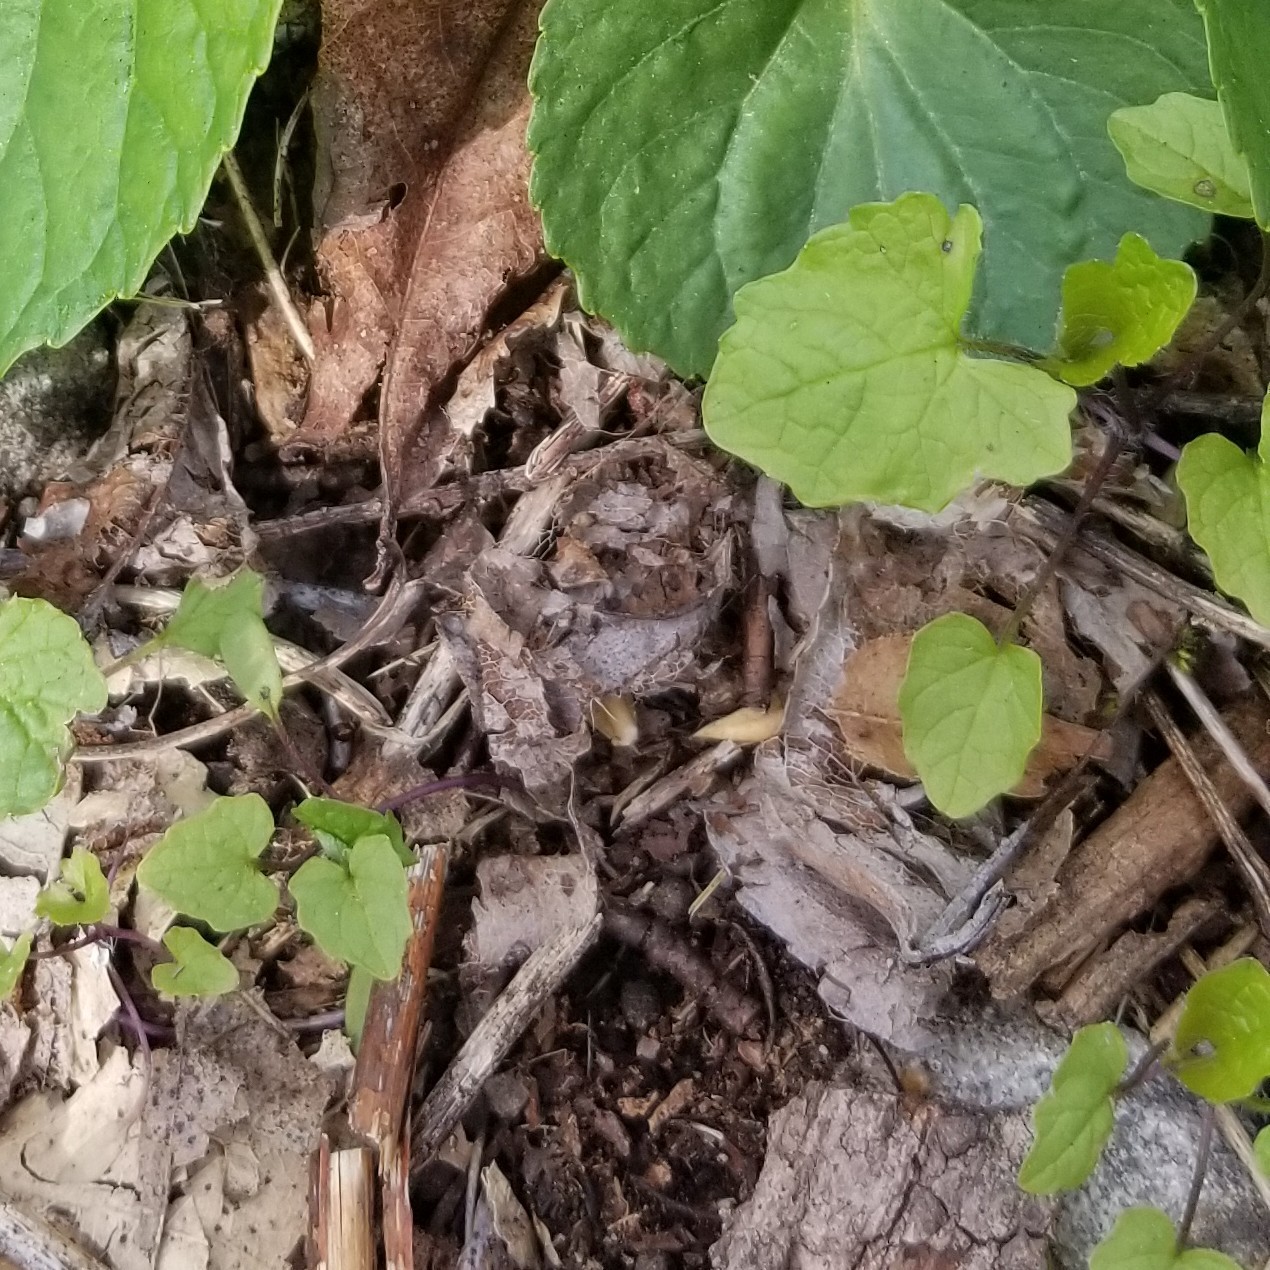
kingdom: Plantae
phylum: Tracheophyta
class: Magnoliopsida
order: Brassicales
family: Brassicaceae
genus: Alliaria
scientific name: Alliaria petiolata
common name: Garlic mustard
